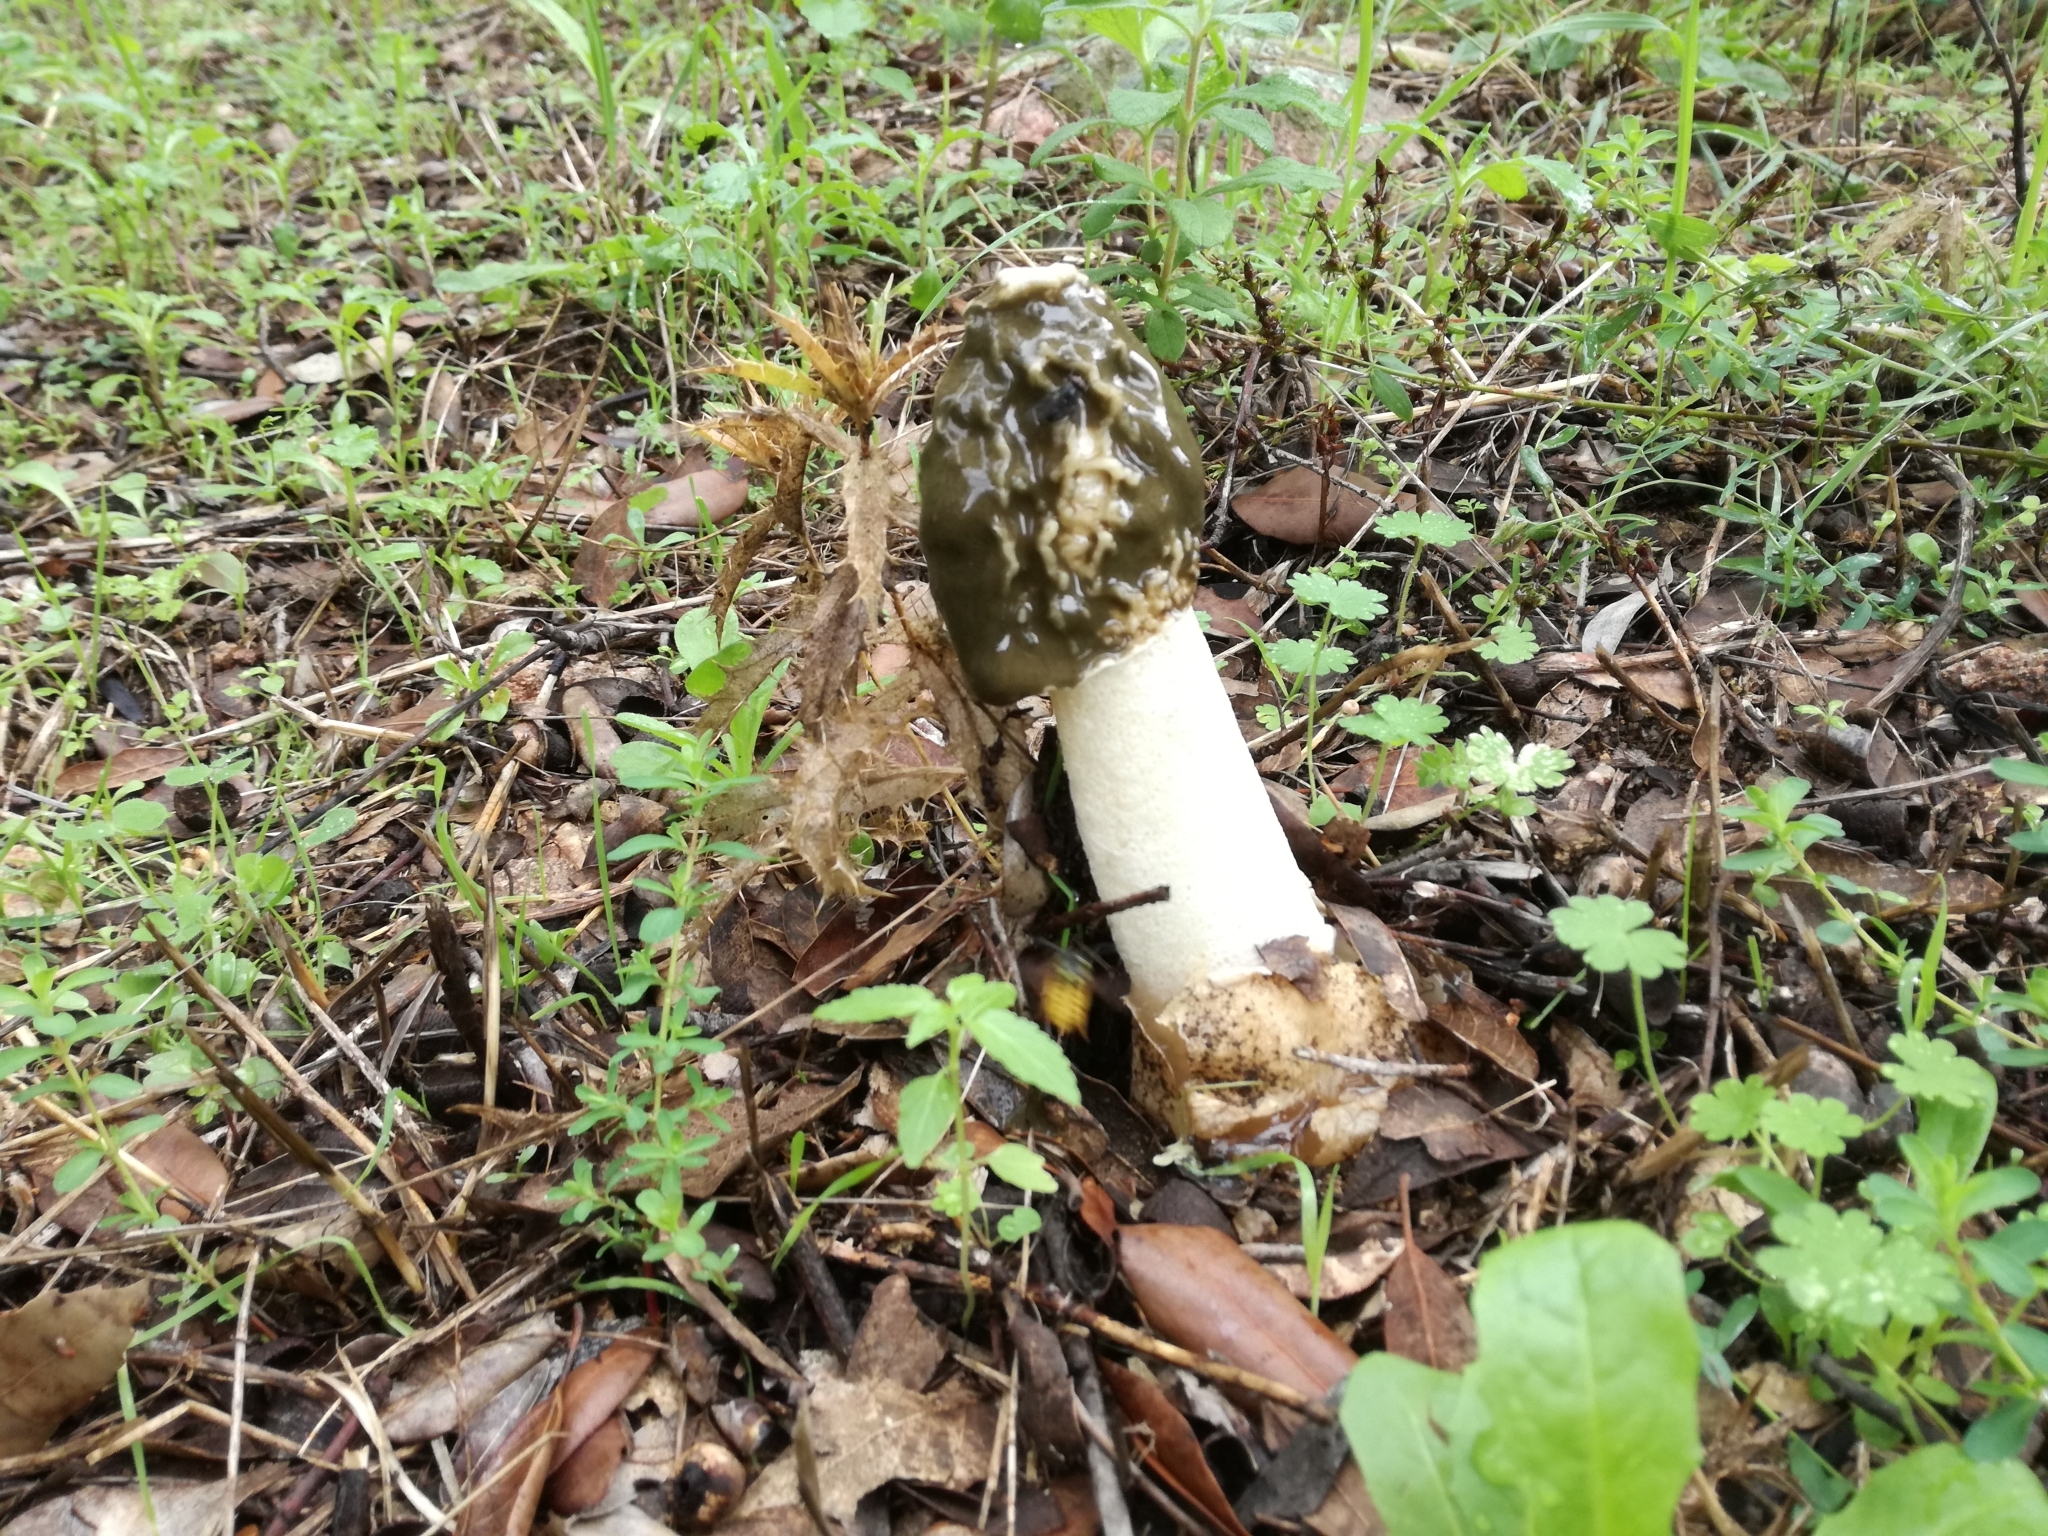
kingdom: Fungi
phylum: Basidiomycota
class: Agaricomycetes
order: Phallales
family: Phallaceae
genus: Phallus
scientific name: Phallus impudicus
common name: Common stinkhorn
